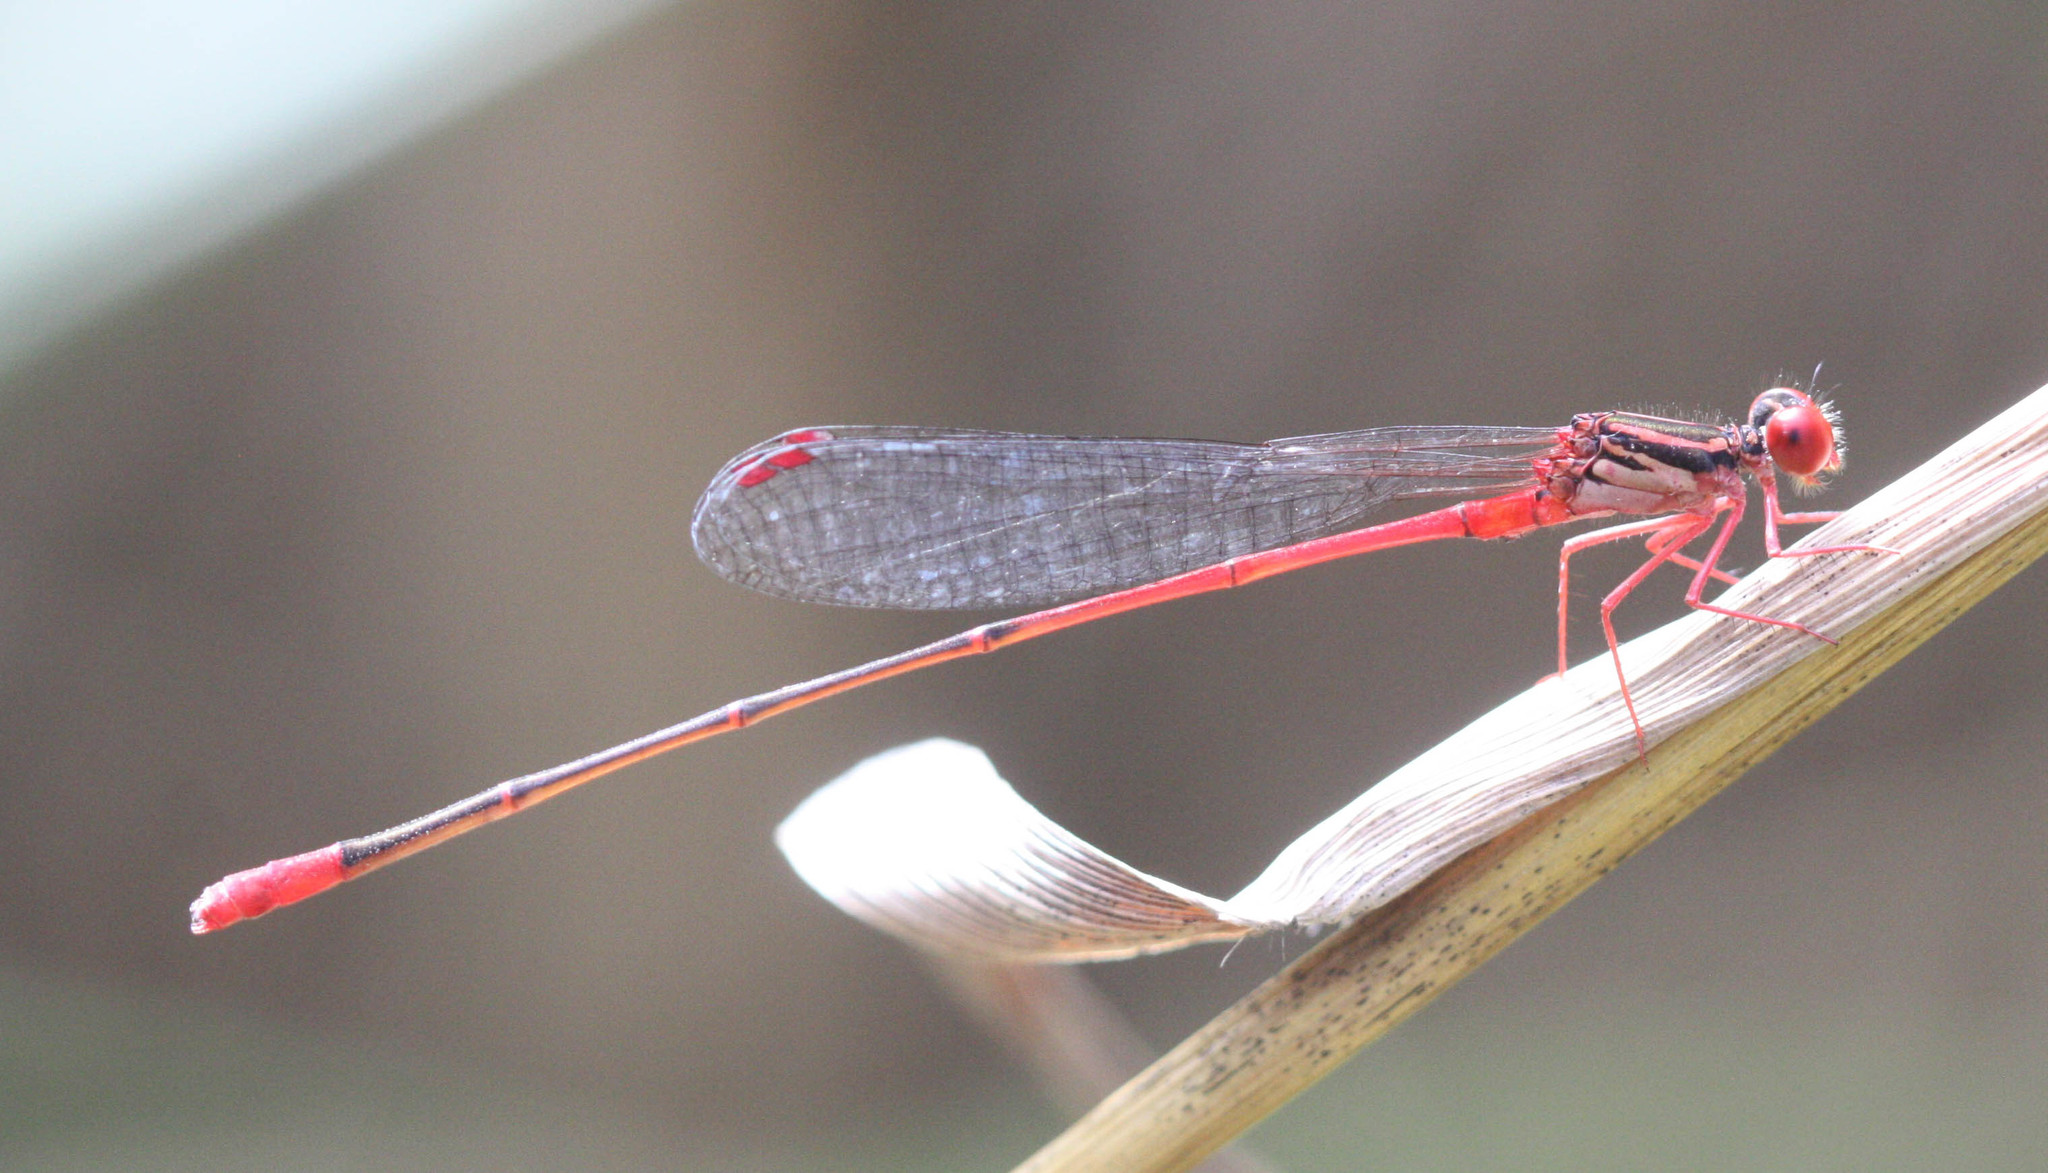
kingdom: Animalia
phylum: Arthropoda
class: Insecta
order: Odonata
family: Coenagrionidae
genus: Megalagrion
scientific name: Megalagrion oresitrophum
